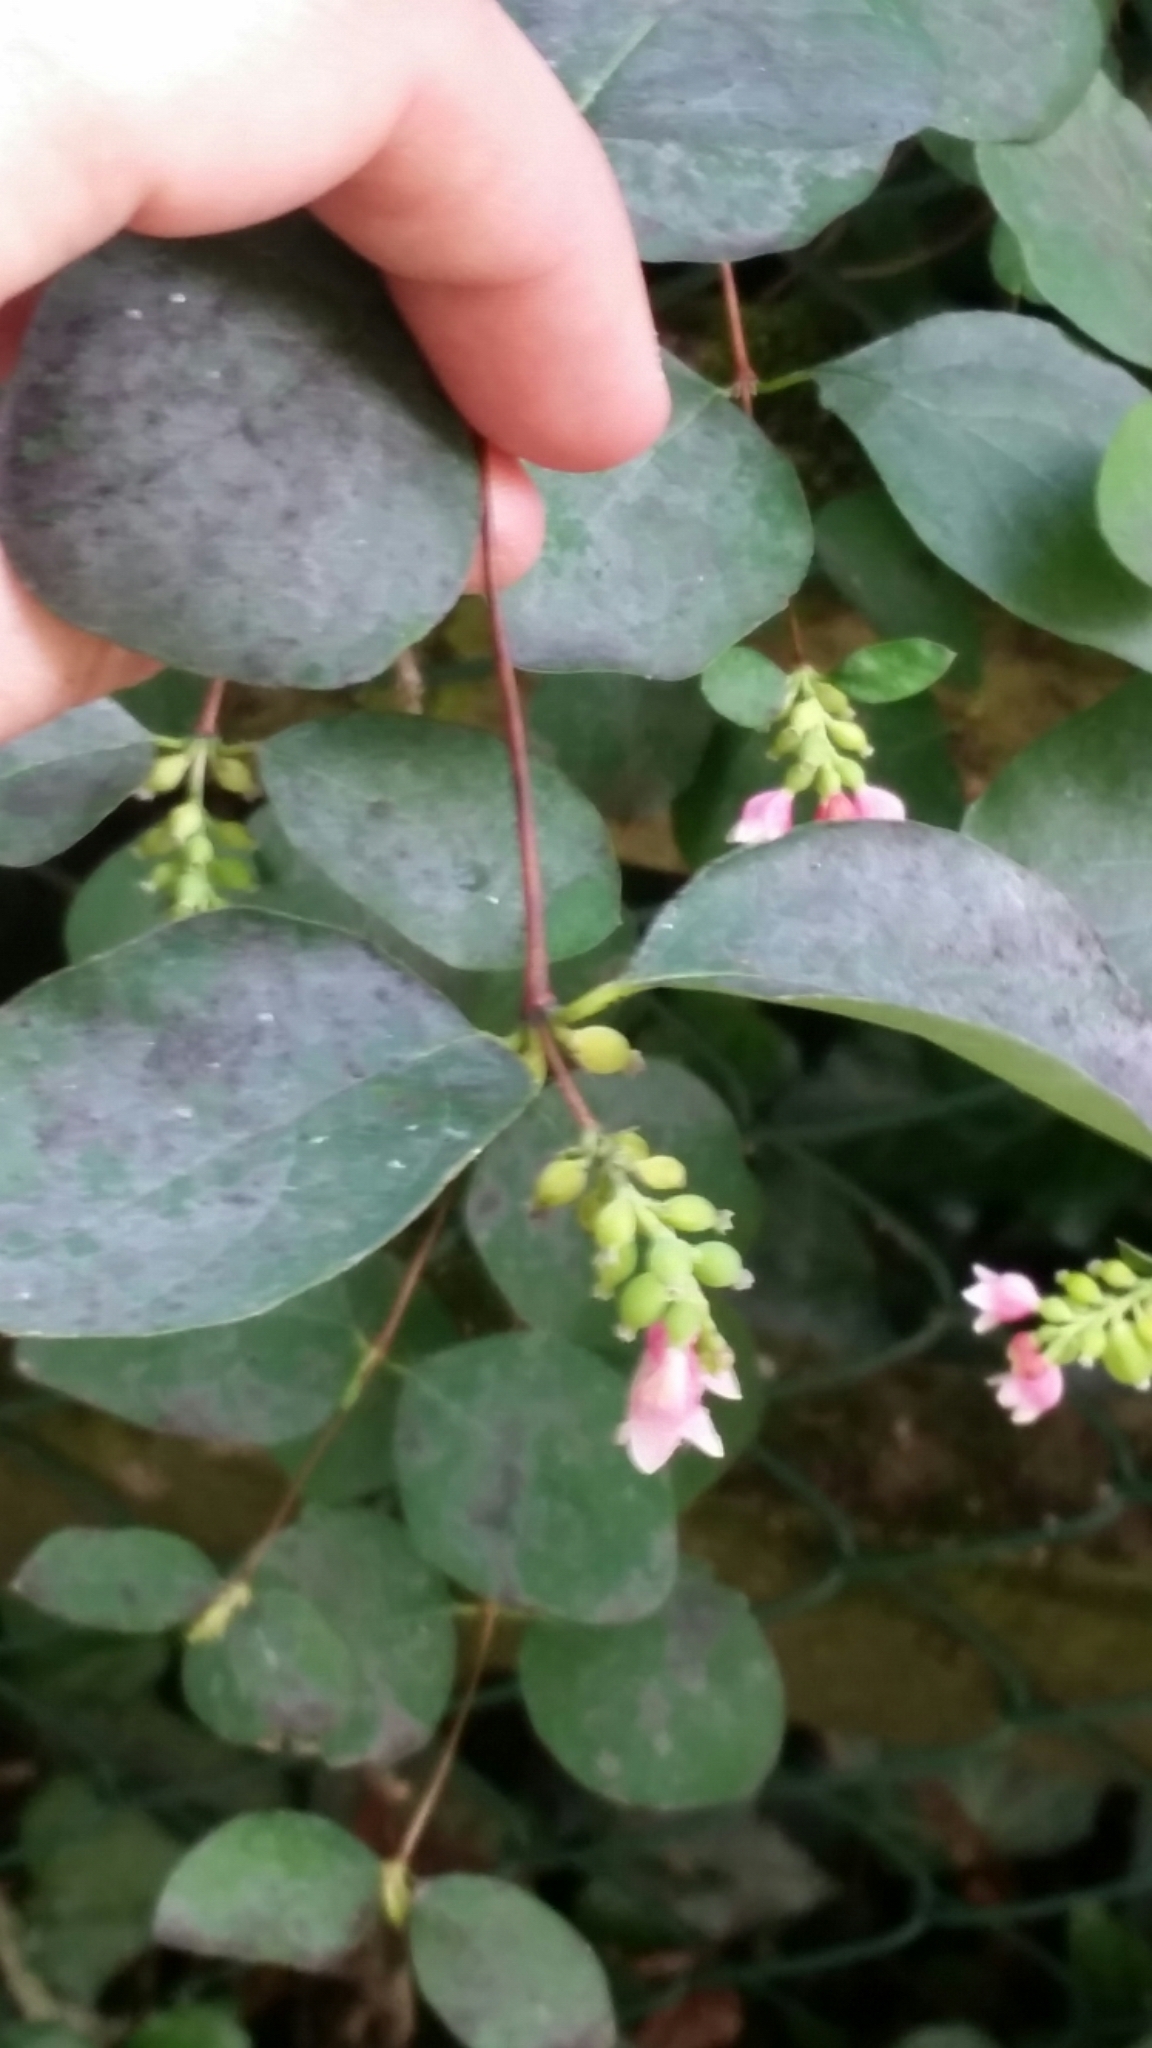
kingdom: Plantae
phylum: Tracheophyta
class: Magnoliopsida
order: Dipsacales
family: Caprifoliaceae
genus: Symphoricarpos
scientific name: Symphoricarpos albus
